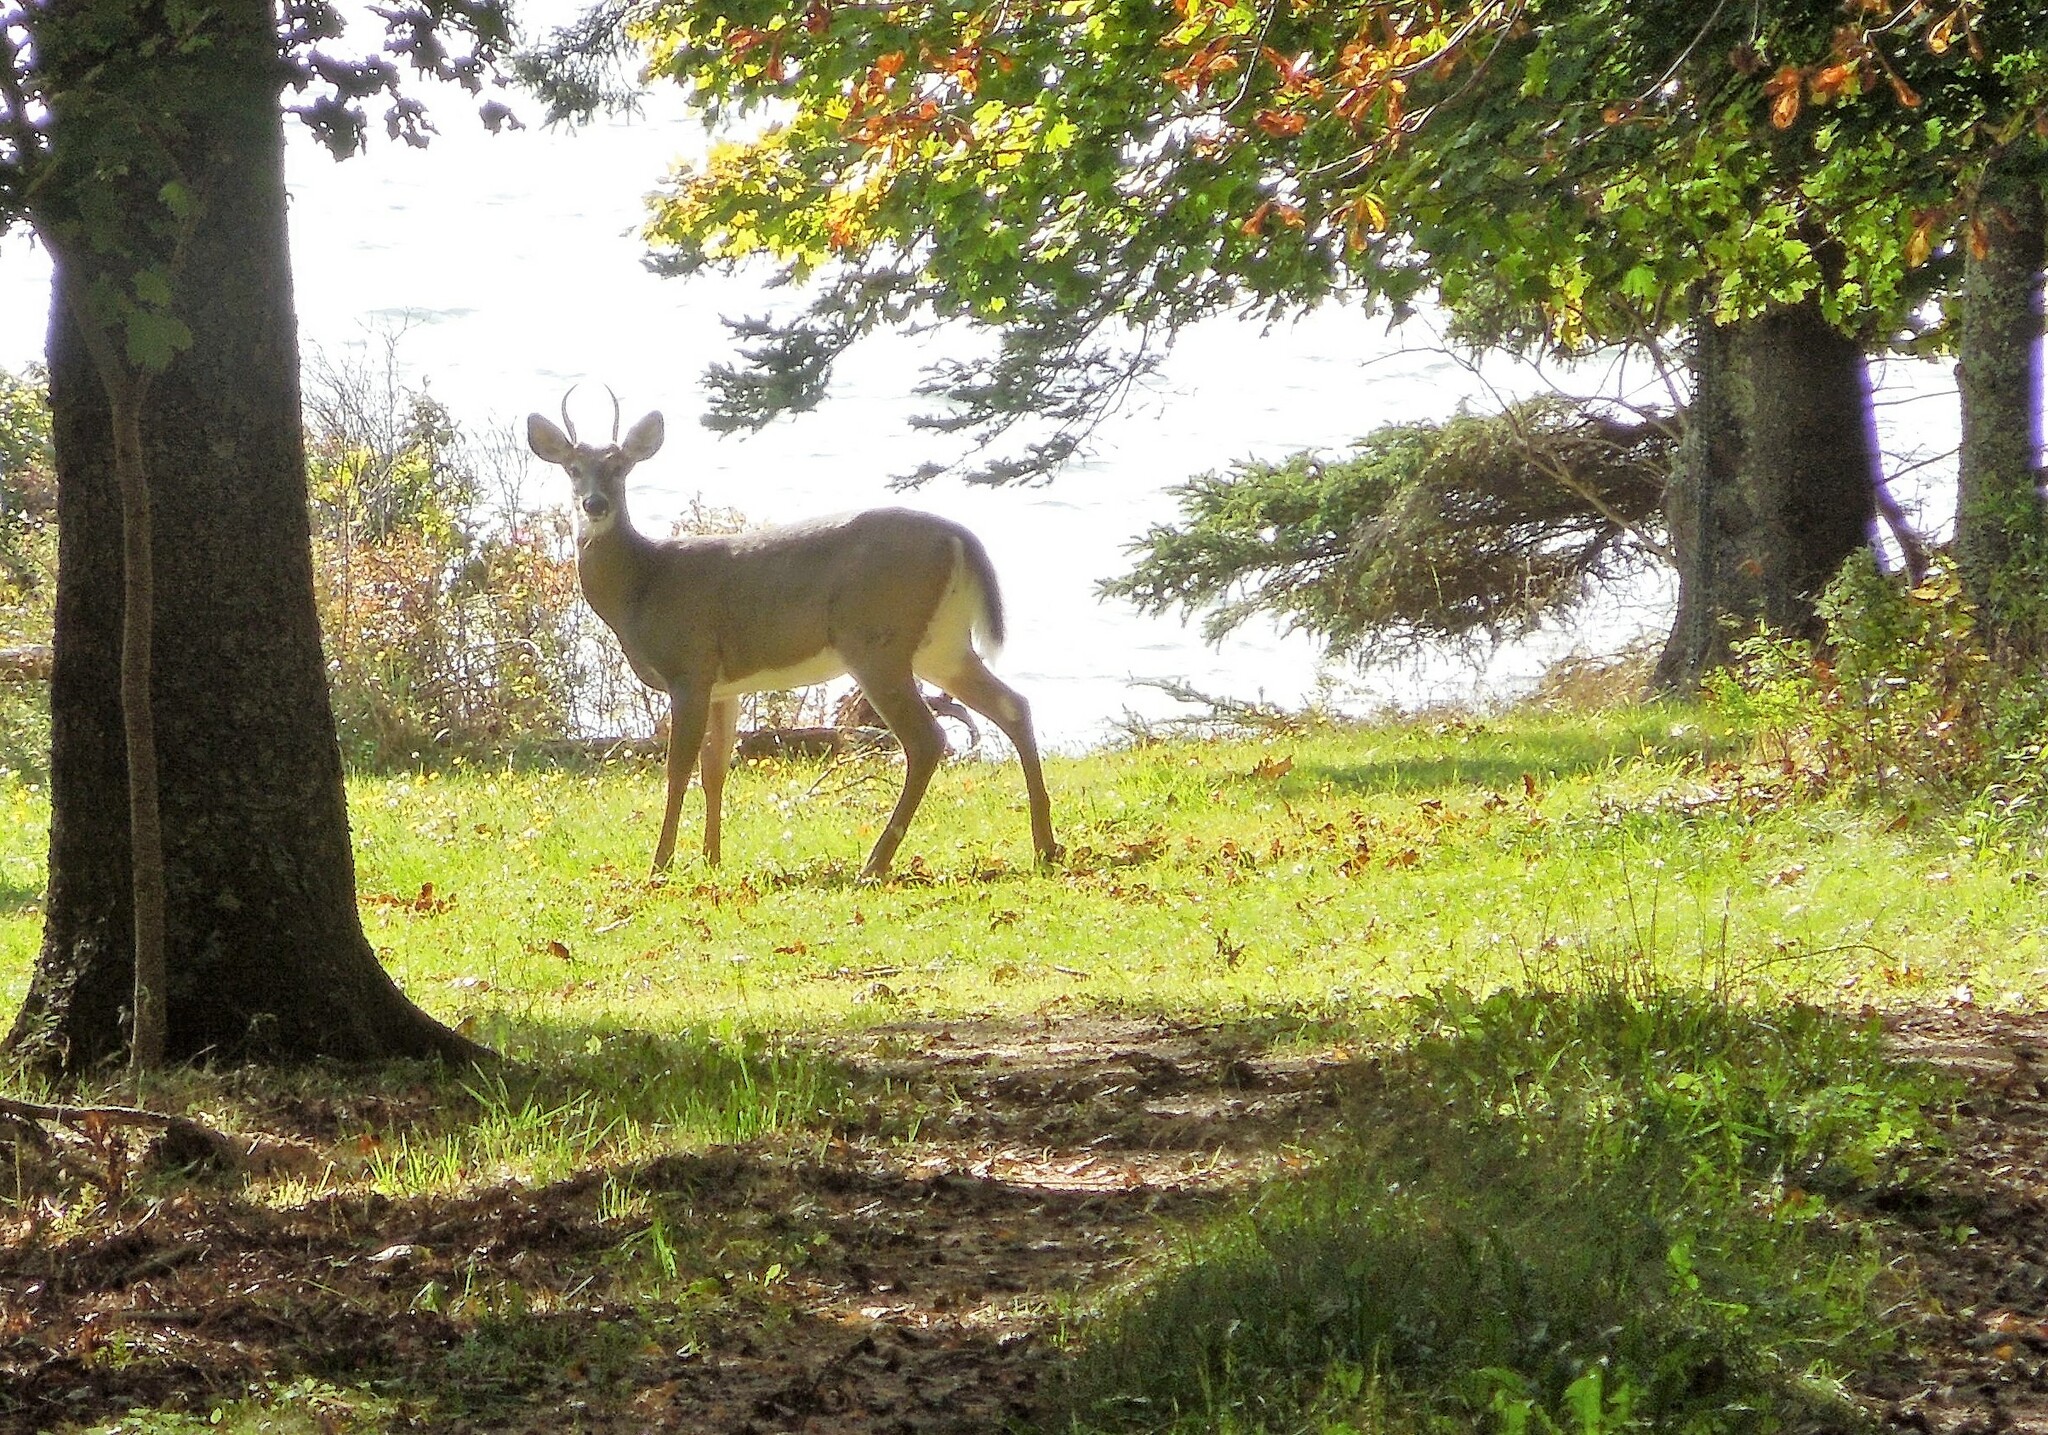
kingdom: Animalia
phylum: Chordata
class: Mammalia
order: Artiodactyla
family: Cervidae
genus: Odocoileus
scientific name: Odocoileus virginianus
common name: White-tailed deer
